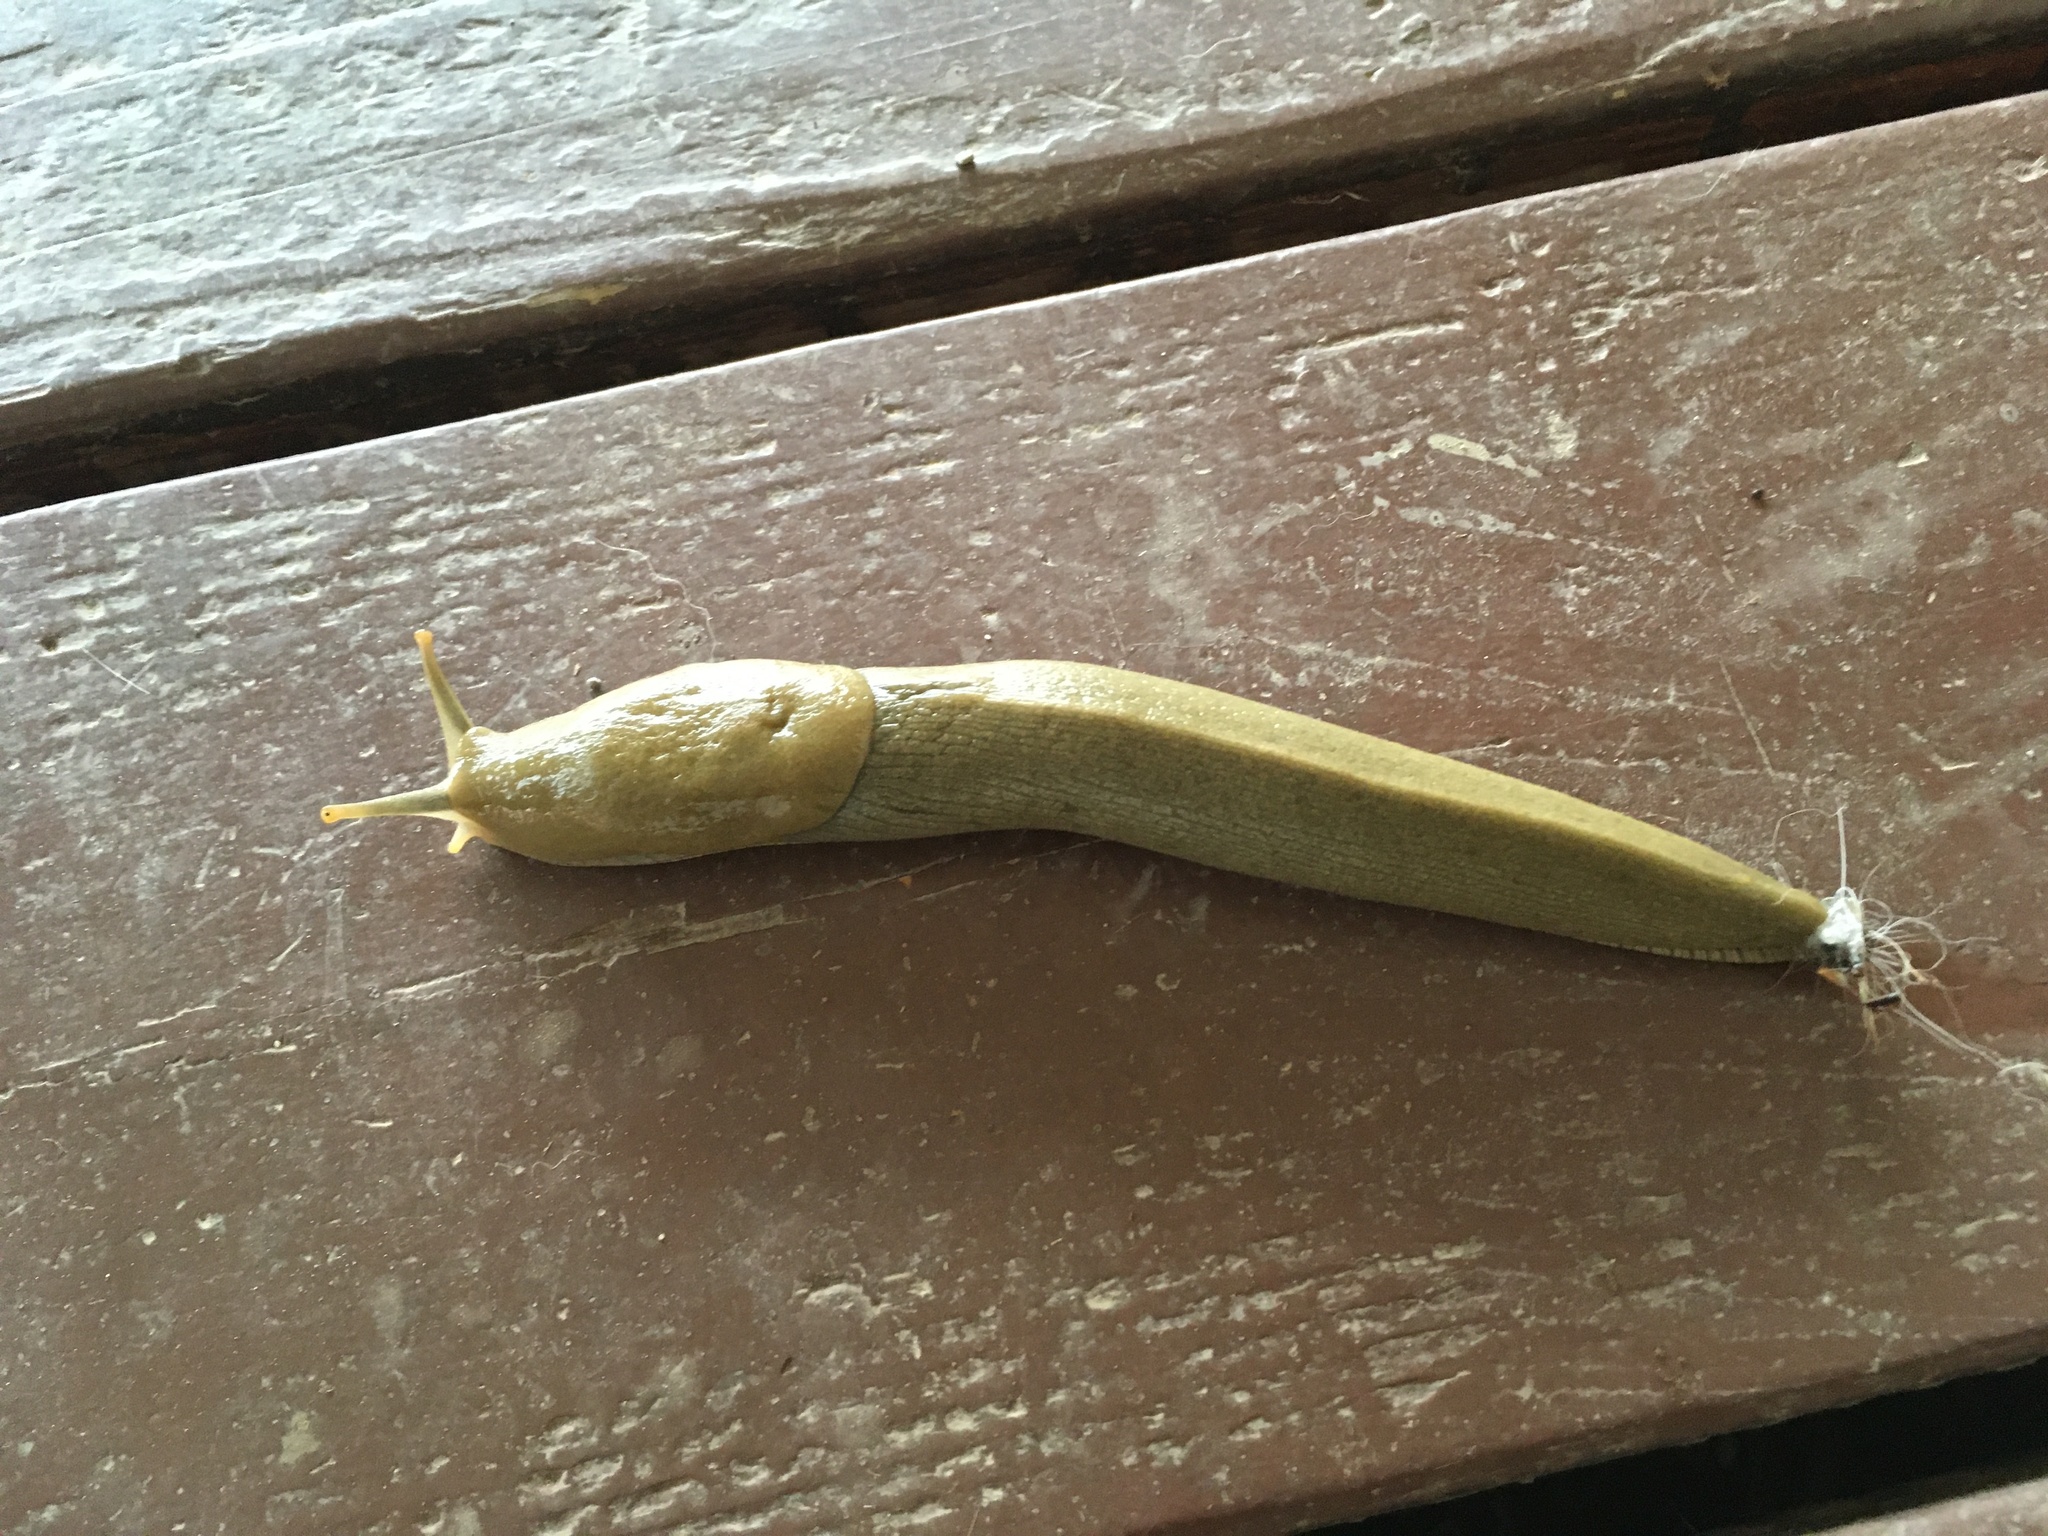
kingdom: Animalia
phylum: Mollusca
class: Gastropoda
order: Stylommatophora
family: Ariolimacidae
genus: Ariolimax
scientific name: Ariolimax columbianus
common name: Pacific banana slug
